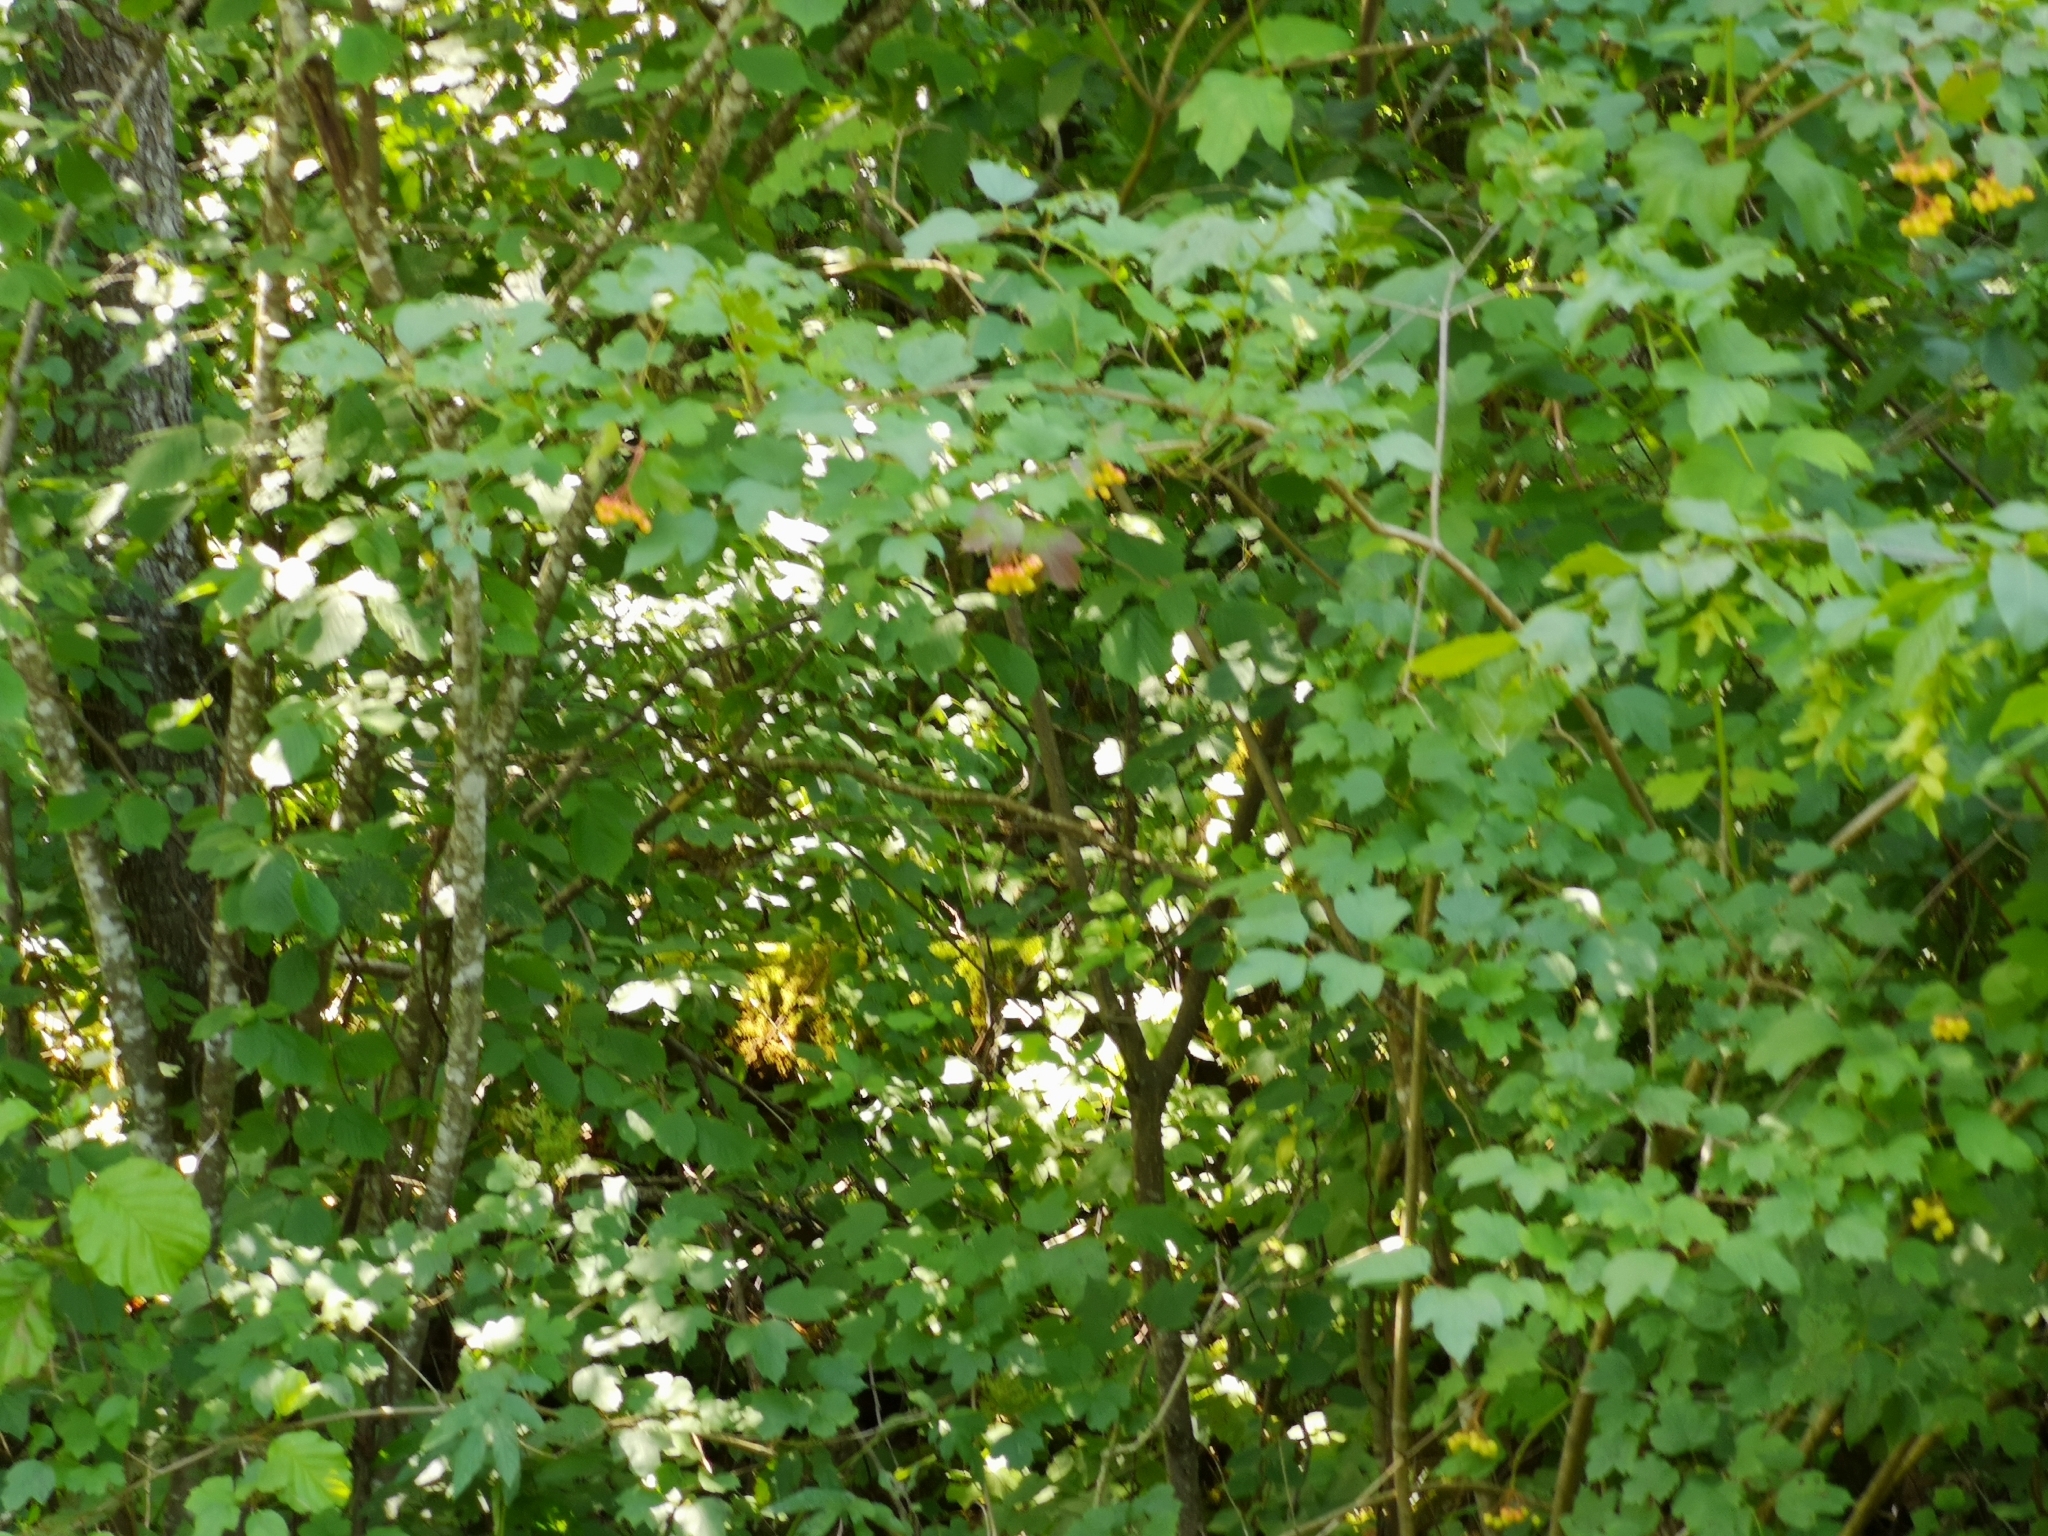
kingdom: Plantae
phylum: Tracheophyta
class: Magnoliopsida
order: Dipsacales
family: Viburnaceae
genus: Viburnum
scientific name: Viburnum opulus
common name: Guelder-rose
